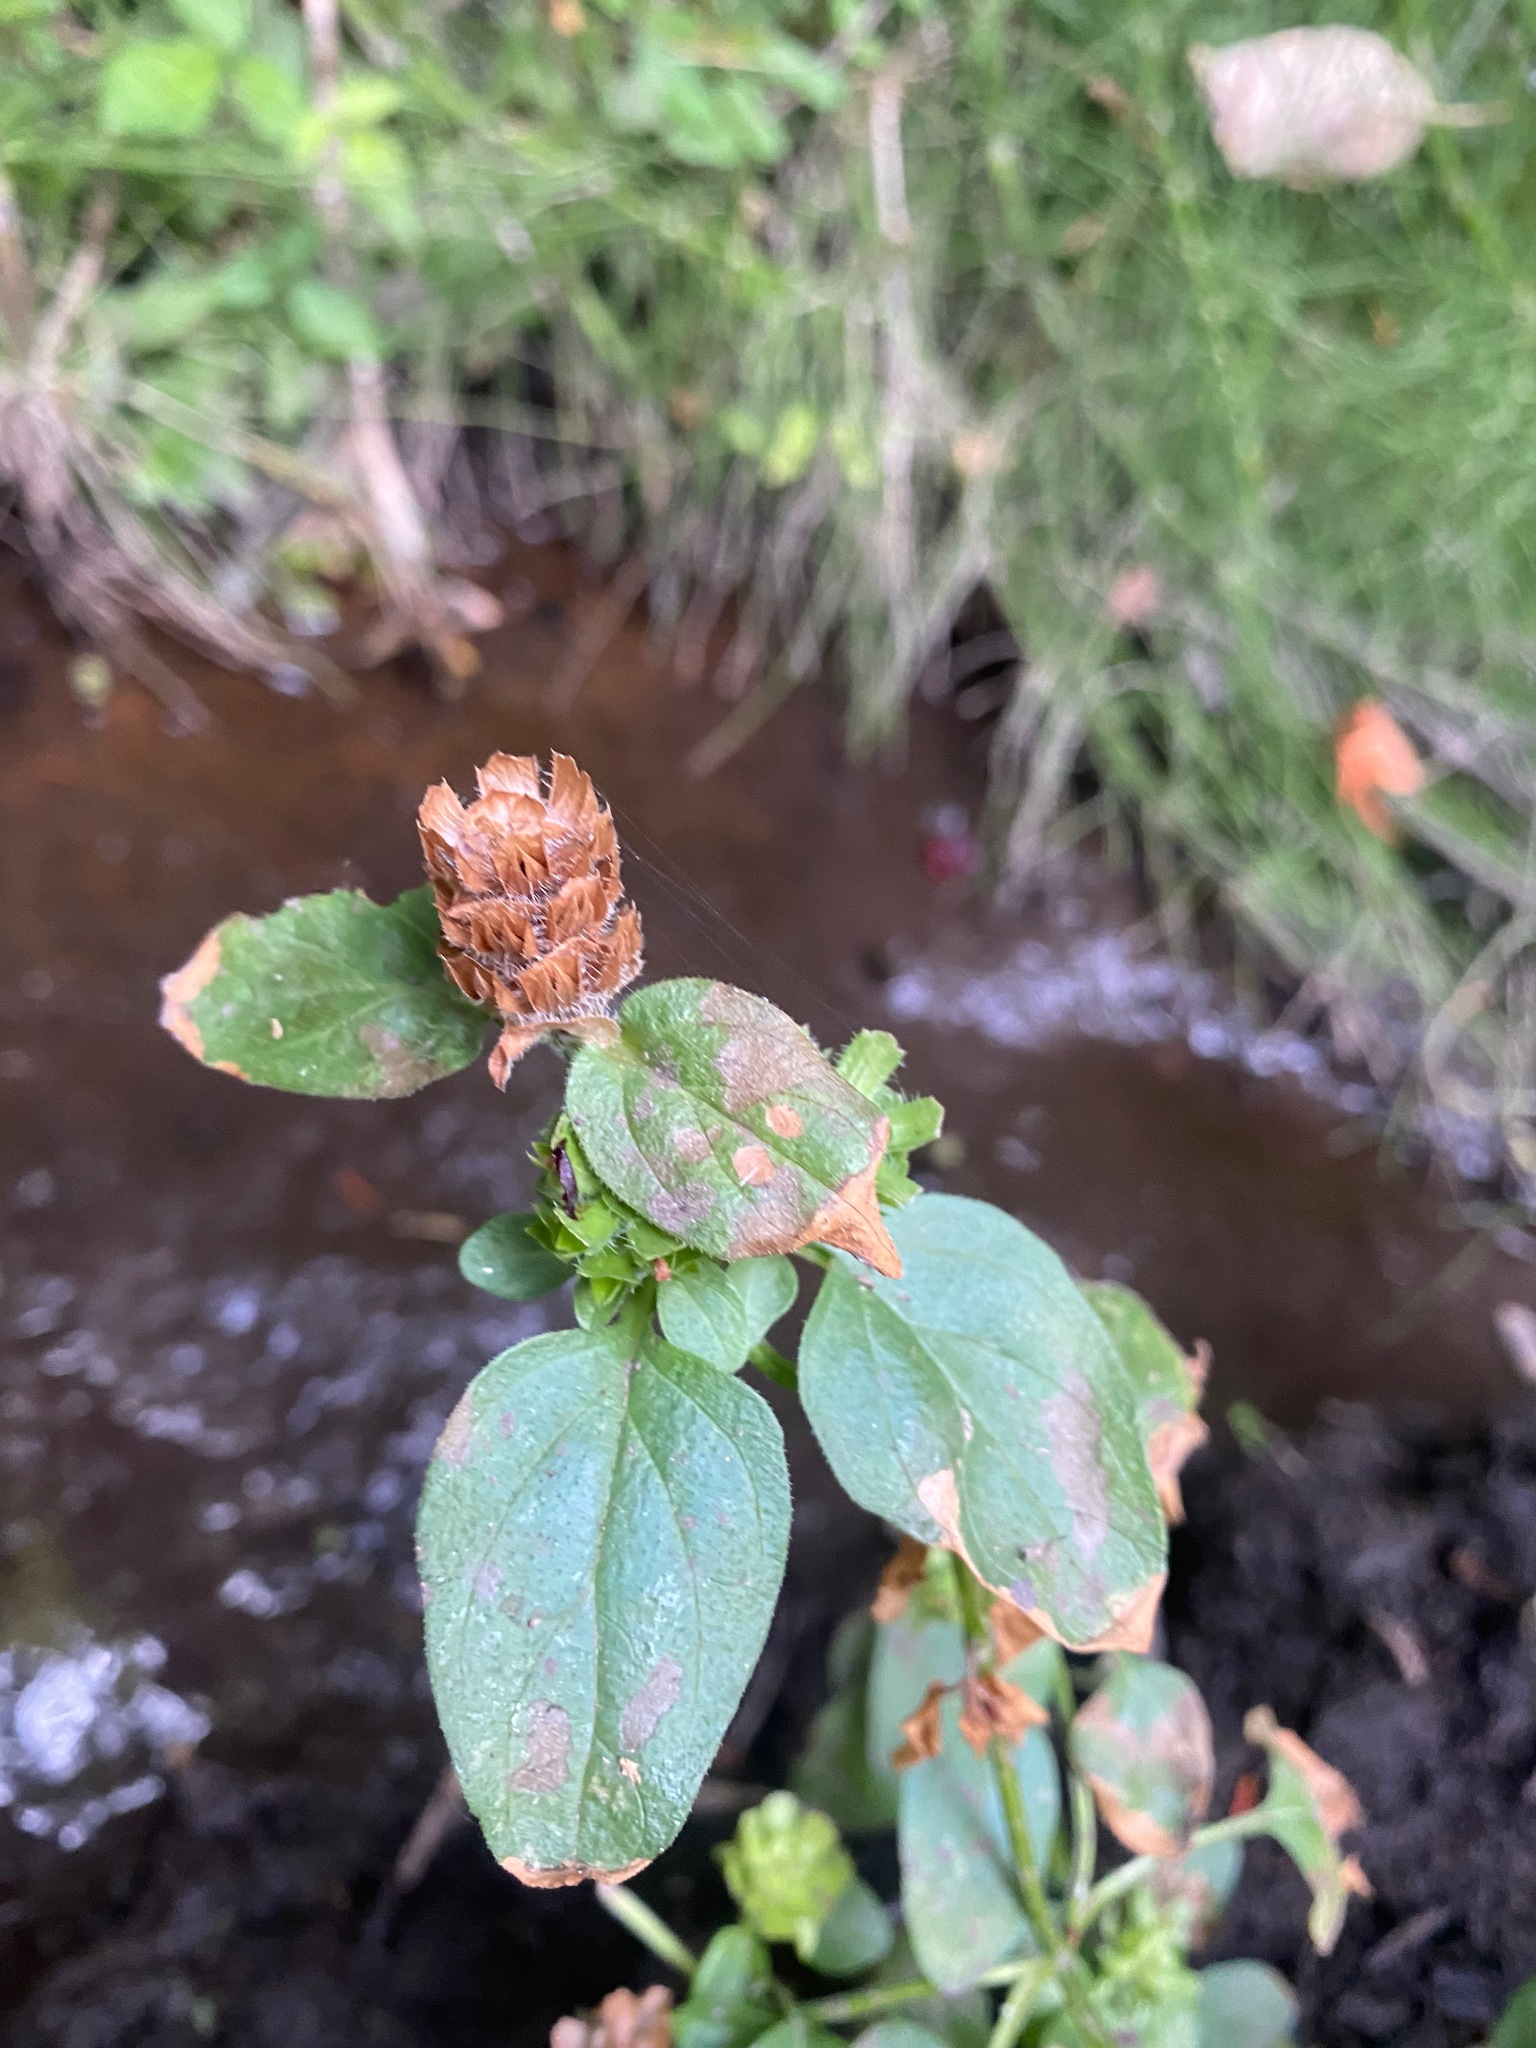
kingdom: Plantae
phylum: Tracheophyta
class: Magnoliopsida
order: Lamiales
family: Lamiaceae
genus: Prunella
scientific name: Prunella vulgaris
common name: Heal-all
